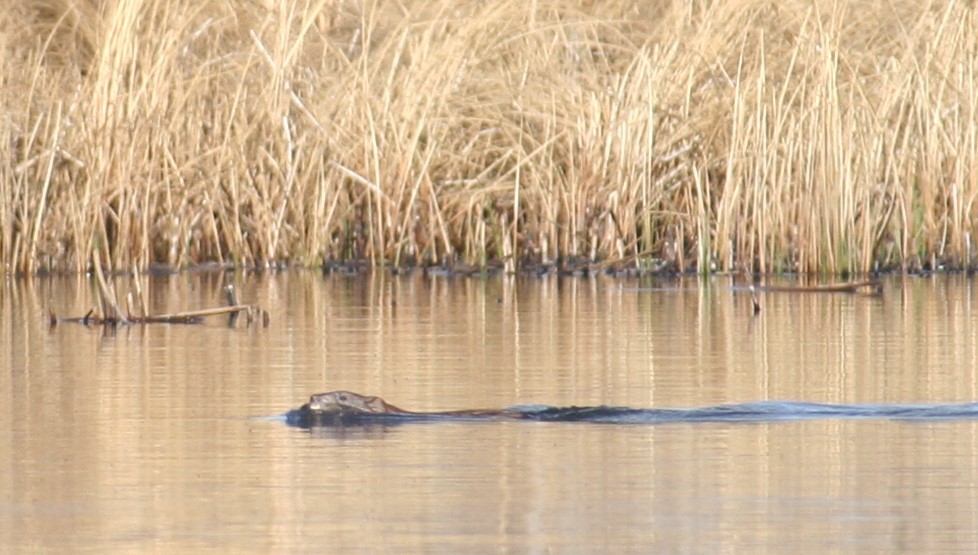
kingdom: Animalia
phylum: Chordata
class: Mammalia
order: Rodentia
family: Cricetidae
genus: Ondatra
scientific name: Ondatra zibethicus
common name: Muskrat
